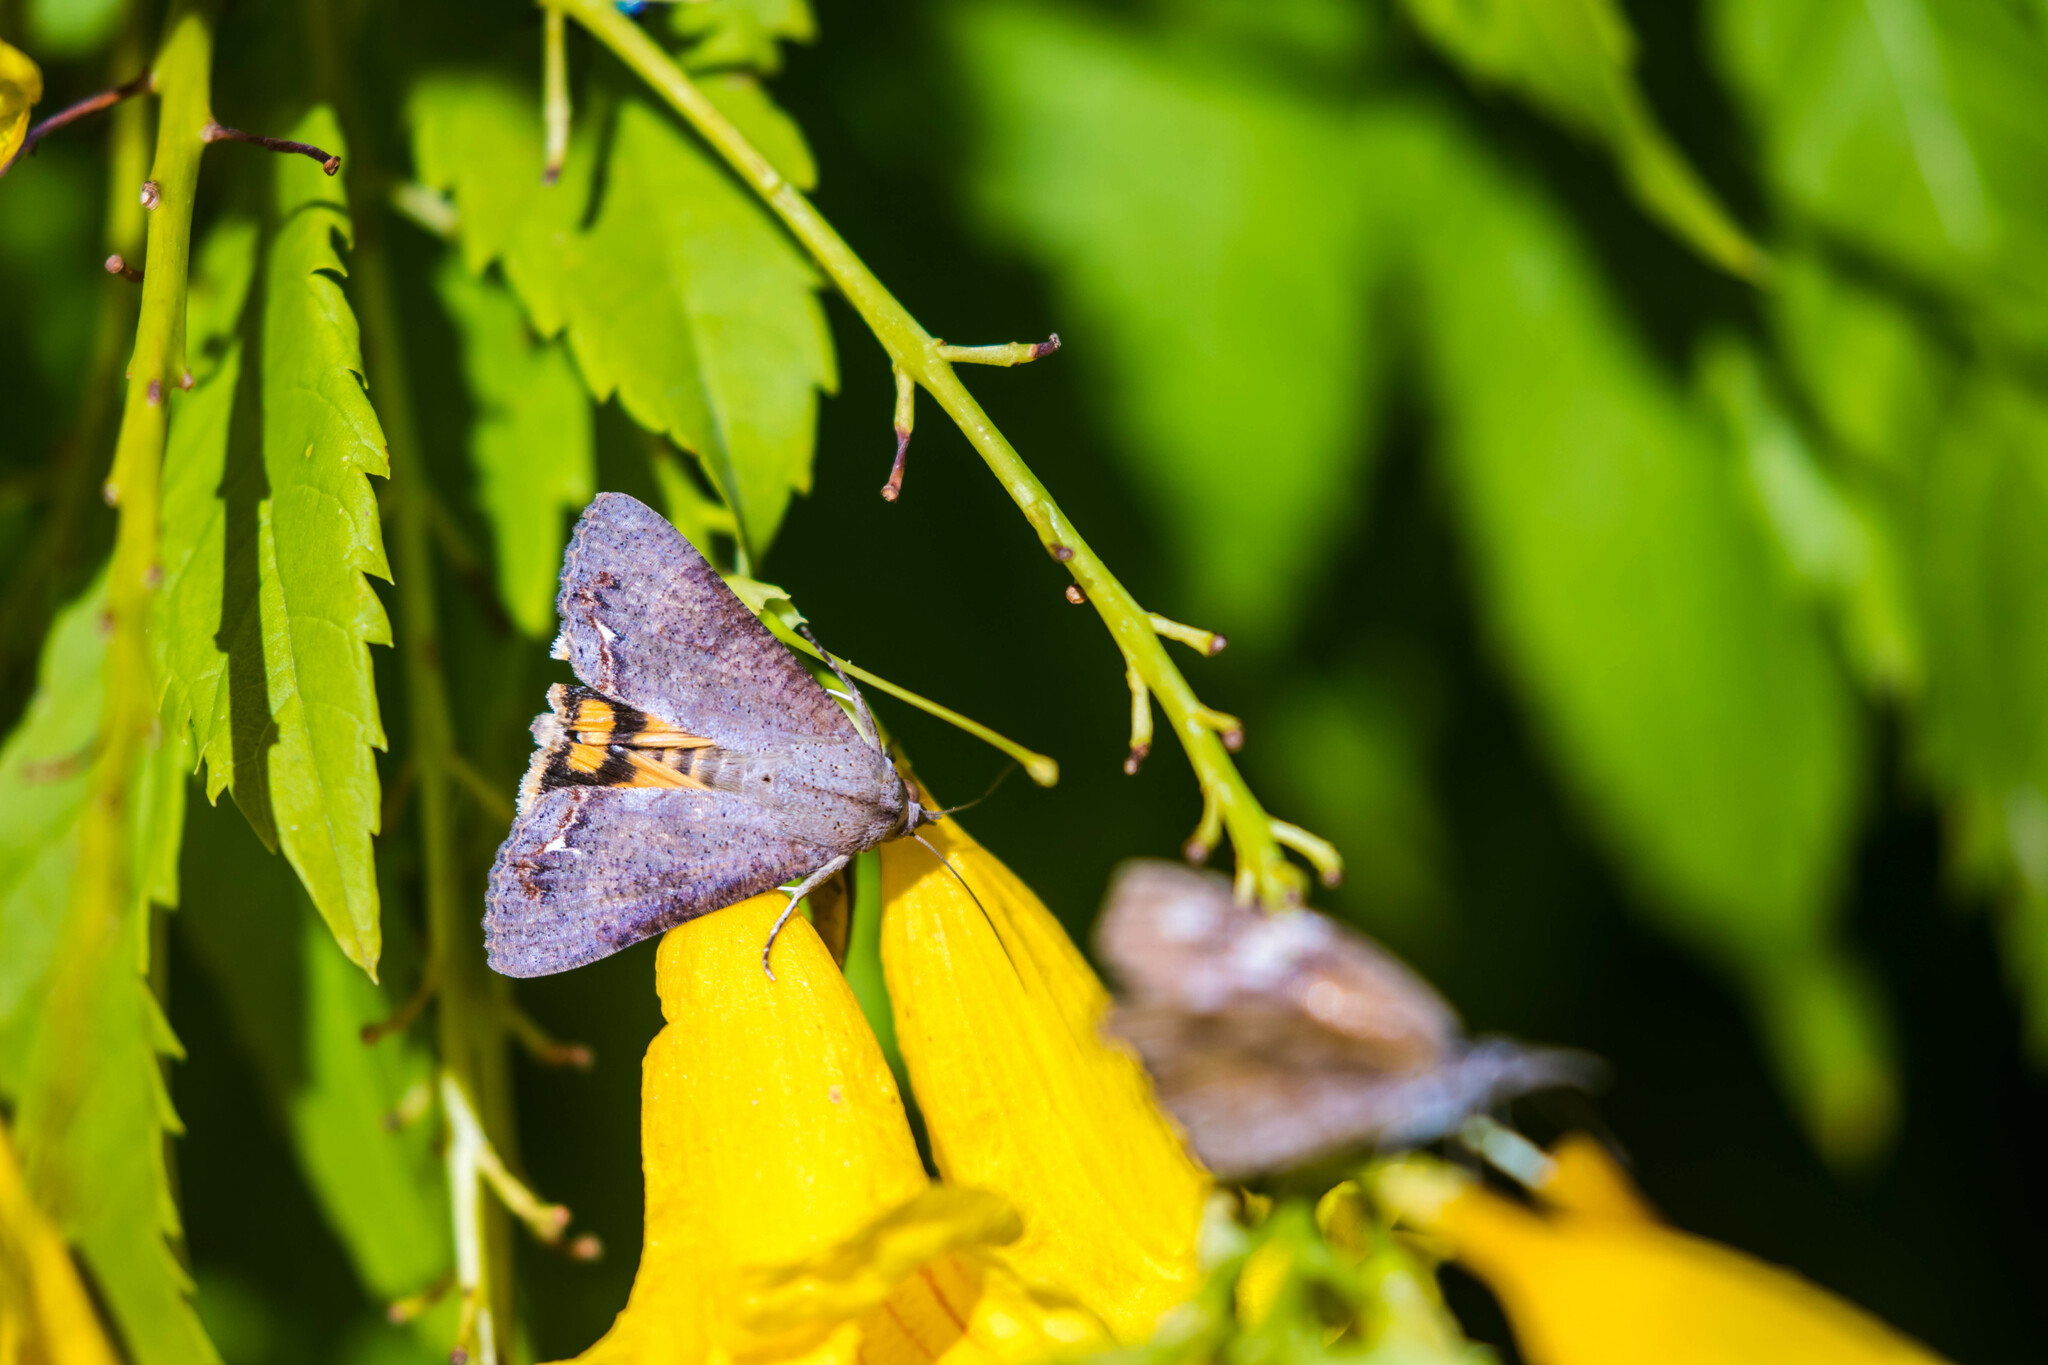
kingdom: Animalia
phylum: Arthropoda
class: Insecta
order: Lepidoptera
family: Erebidae
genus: Hypocala
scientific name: Hypocala andremona
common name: Hypocala moth
